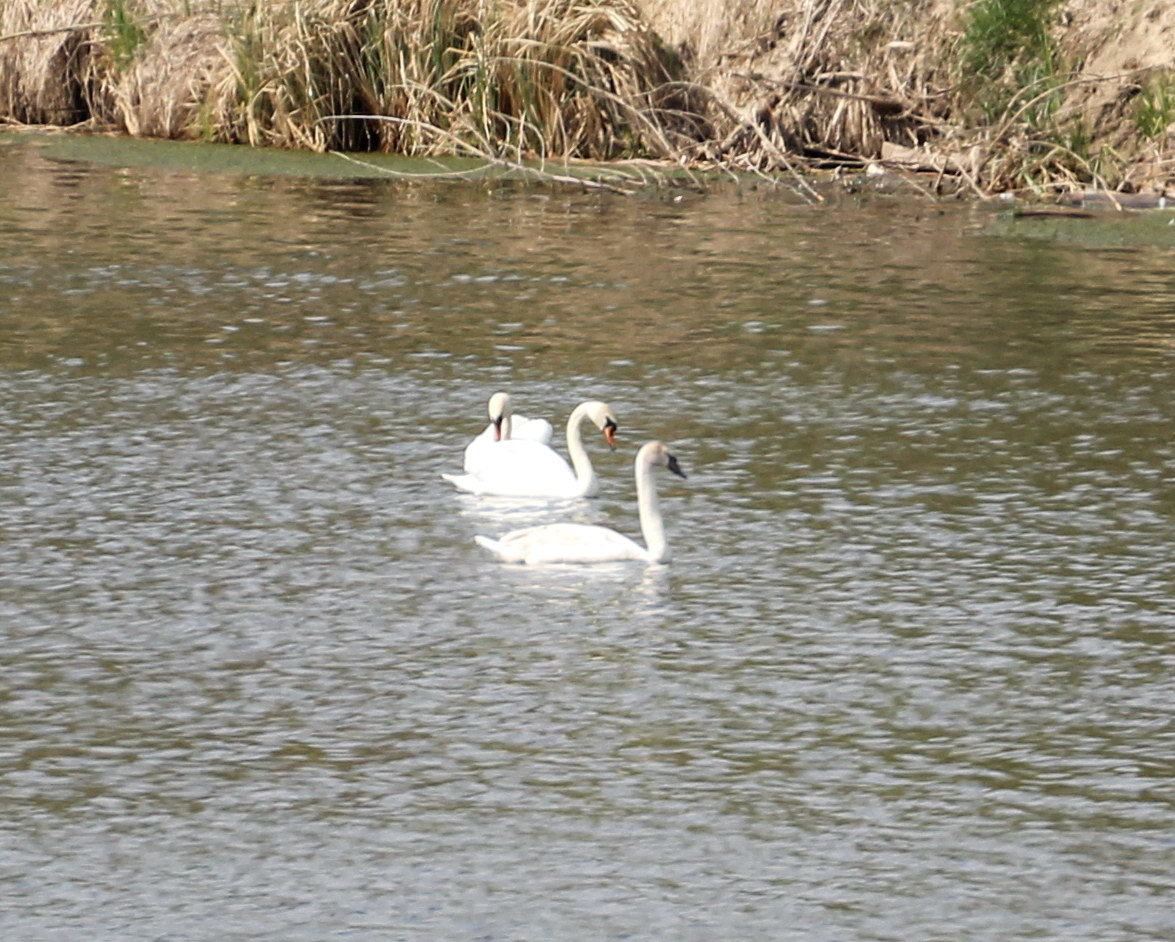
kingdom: Animalia
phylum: Chordata
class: Aves
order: Anseriformes
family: Anatidae
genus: Cygnus
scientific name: Cygnus olor
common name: Mute swan
